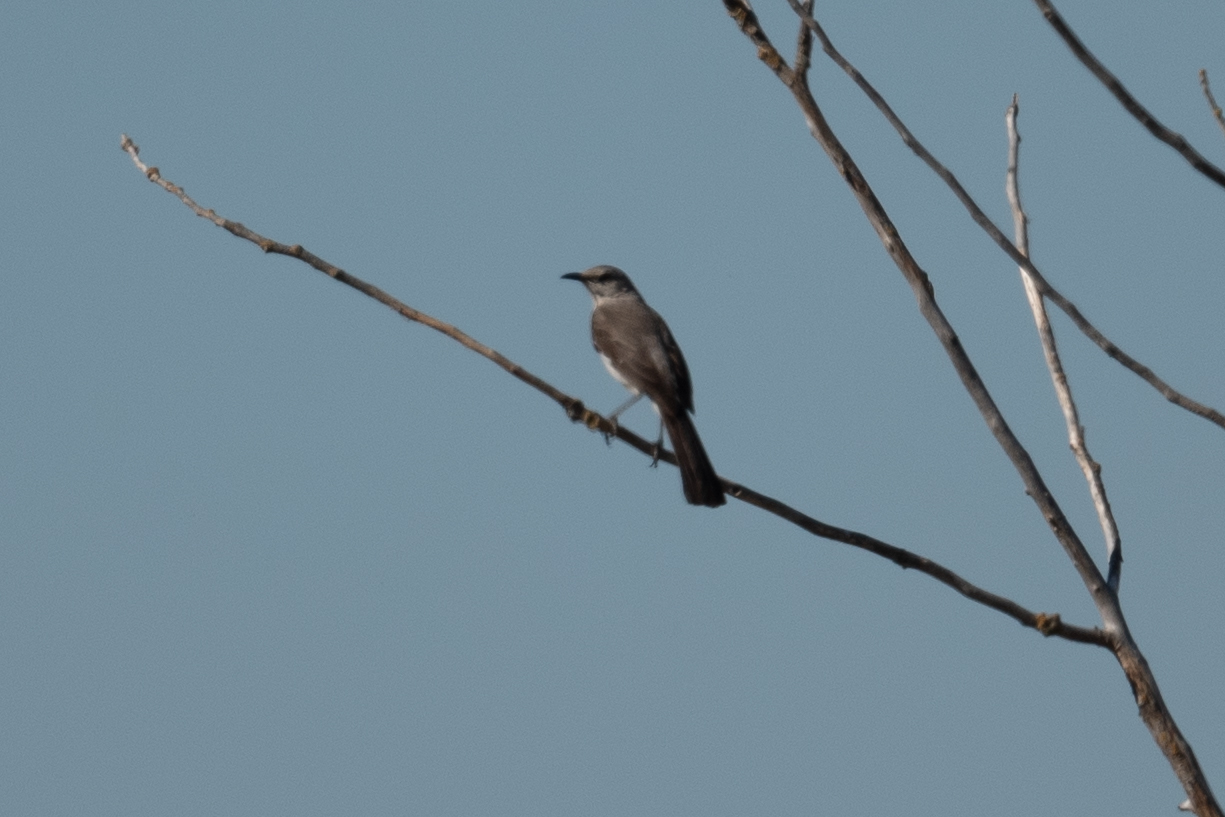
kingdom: Animalia
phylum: Chordata
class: Aves
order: Passeriformes
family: Mimidae
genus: Mimus
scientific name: Mimus polyglottos
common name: Northern mockingbird
